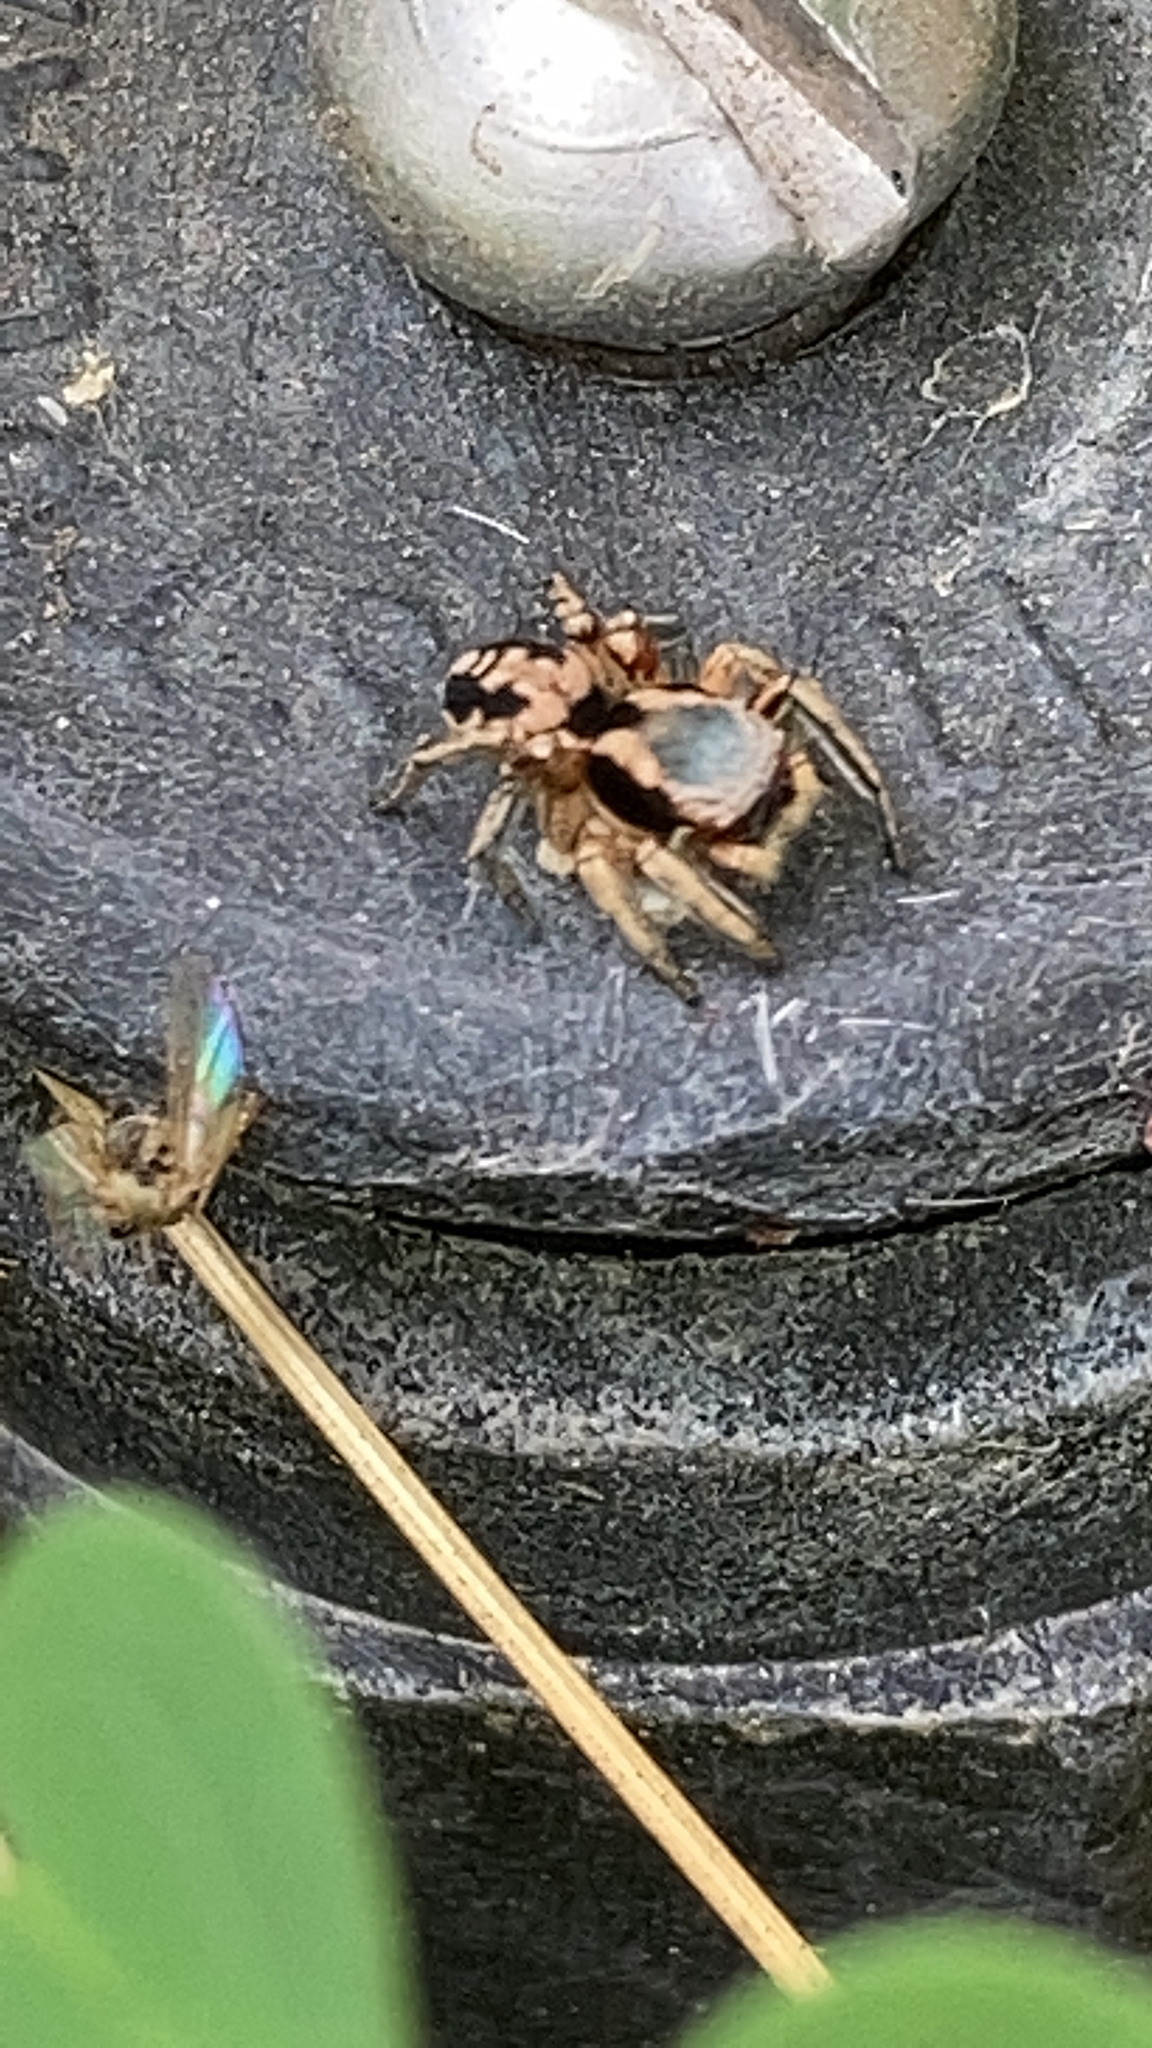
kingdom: Animalia
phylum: Arthropoda
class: Arachnida
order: Araneae
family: Salticidae
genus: Habronattus
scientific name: Habronattus pyrrithrix
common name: Jumping spider
